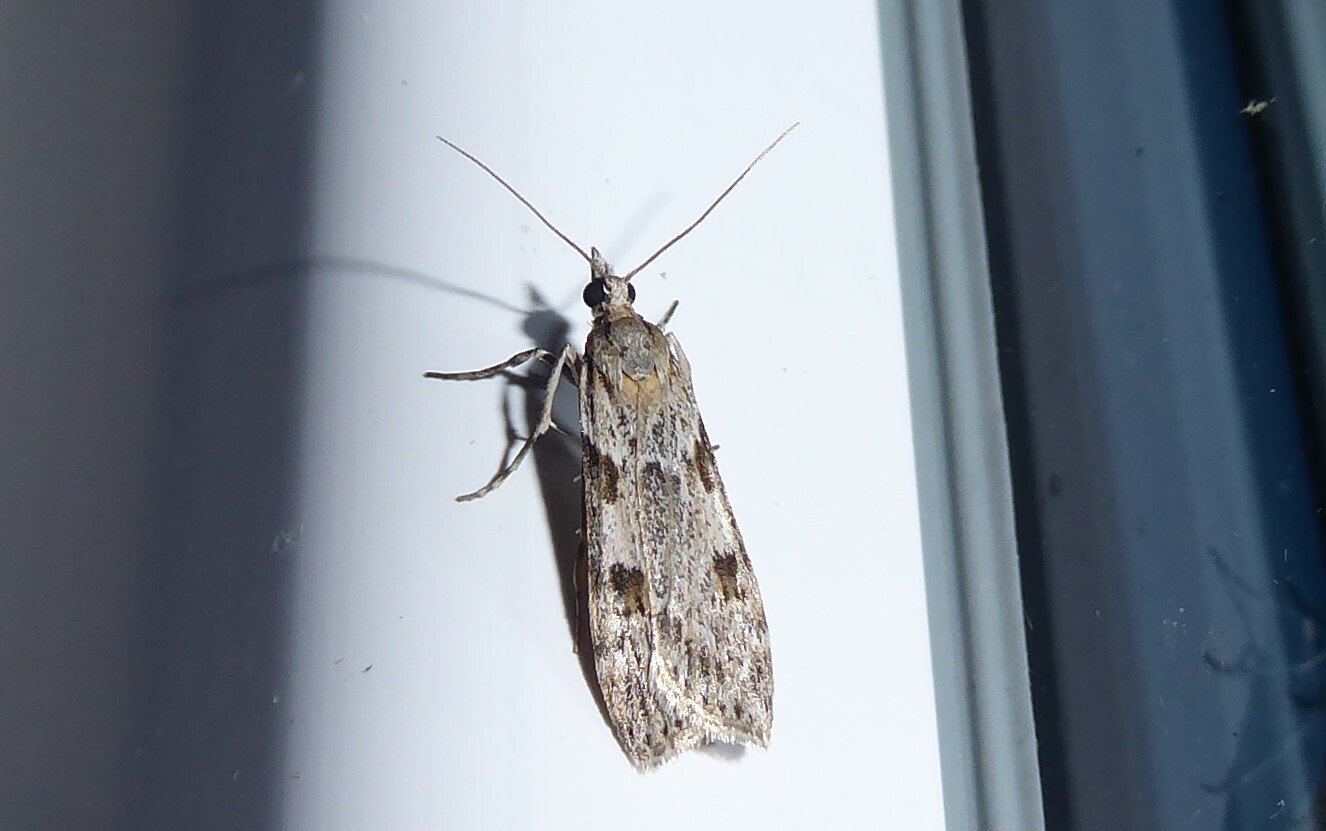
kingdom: Animalia
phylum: Arthropoda
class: Insecta
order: Lepidoptera
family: Crambidae
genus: Scoparia
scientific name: Scoparia halopis
